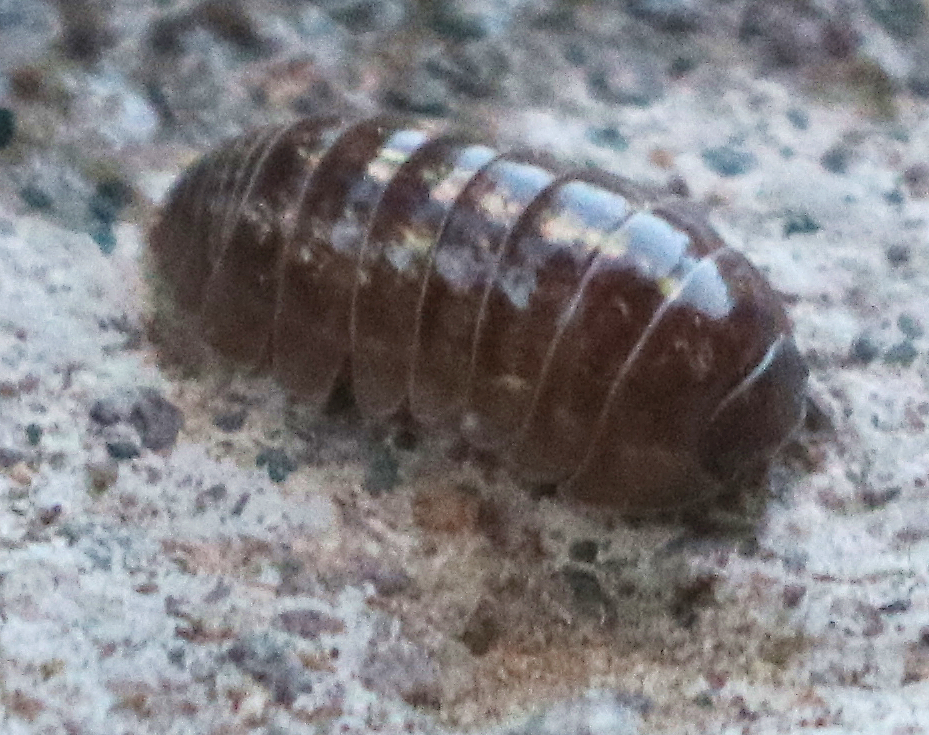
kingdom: Animalia
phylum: Arthropoda
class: Malacostraca
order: Isopoda
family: Armadillidiidae
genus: Armadillidium
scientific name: Armadillidium vulgare
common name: Common pill woodlouse
